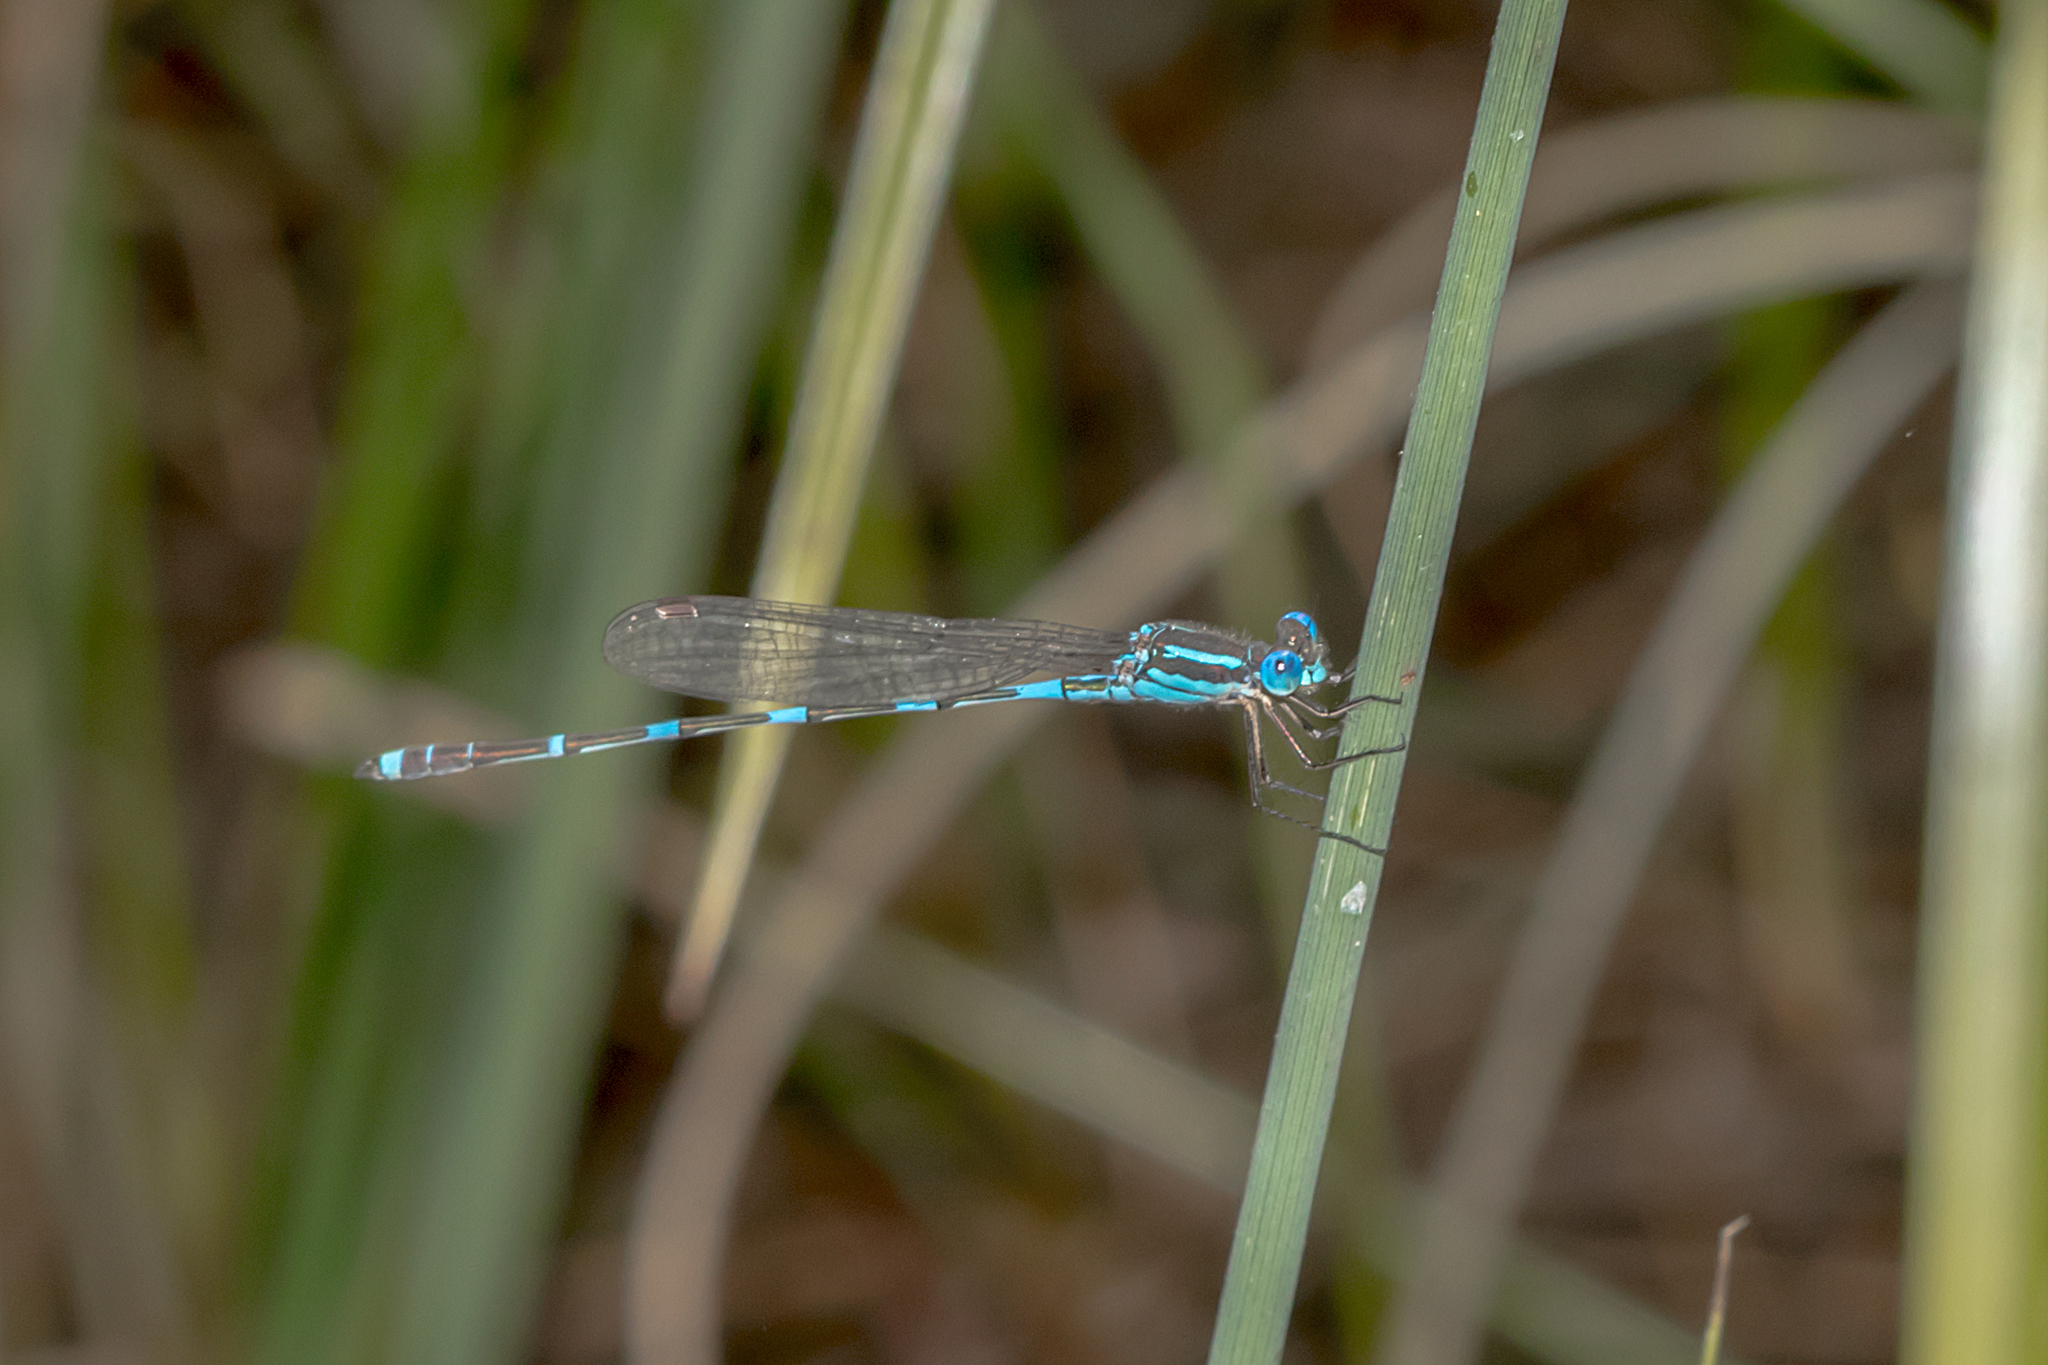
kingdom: Animalia
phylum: Arthropoda
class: Insecta
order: Odonata
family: Lestidae
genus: Austrolestes
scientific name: Austrolestes leda
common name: Wandering ringtail
